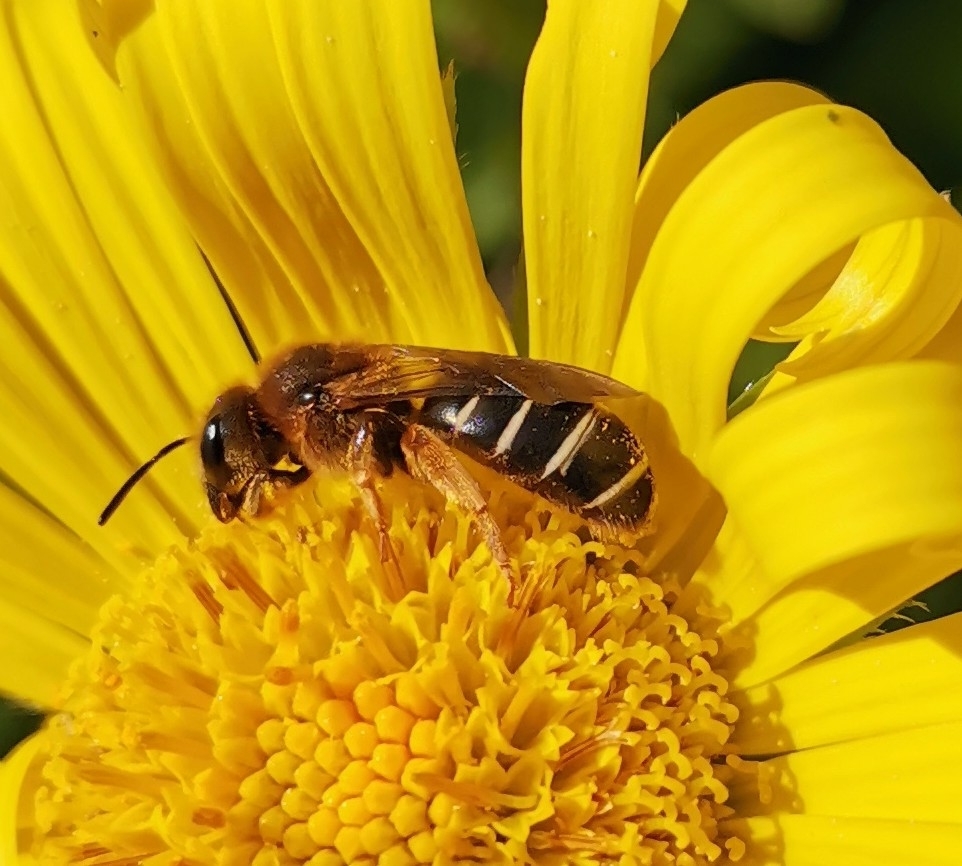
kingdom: Animalia
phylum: Arthropoda
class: Insecta
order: Hymenoptera
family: Halictidae
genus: Halictus
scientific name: Halictus rubicundus
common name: Orange-legged furrow bee
